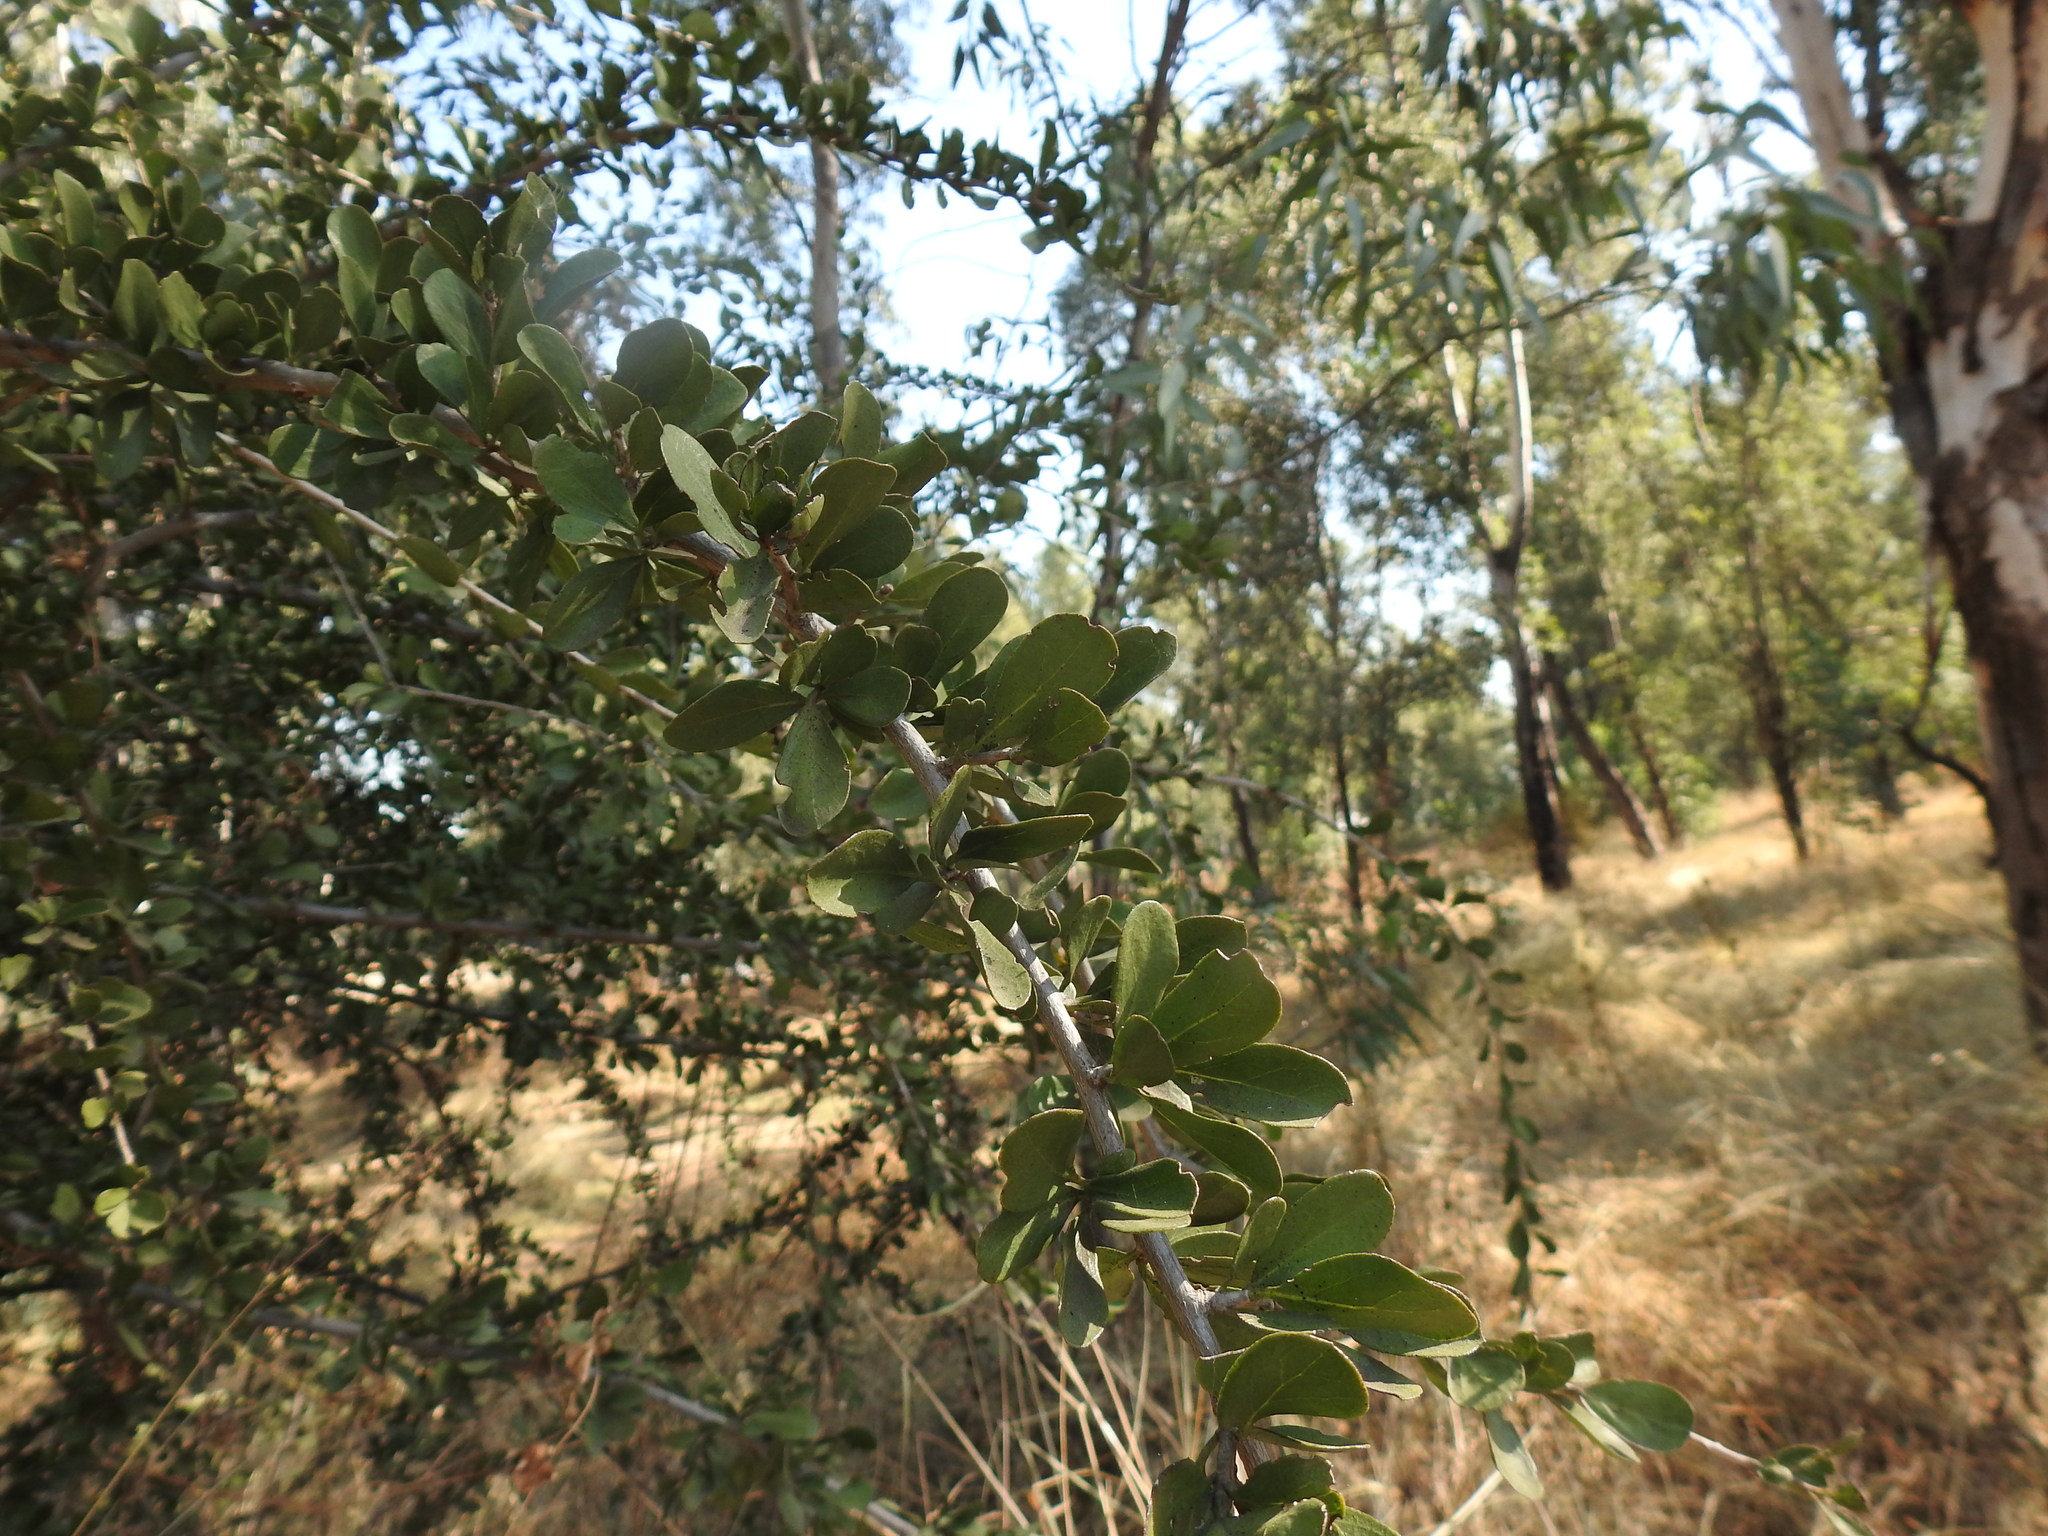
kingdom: Plantae
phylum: Tracheophyta
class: Magnoliopsida
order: Boraginales
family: Ehretiaceae
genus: Ehretia
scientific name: Ehretia rigida
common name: Cape lilac
